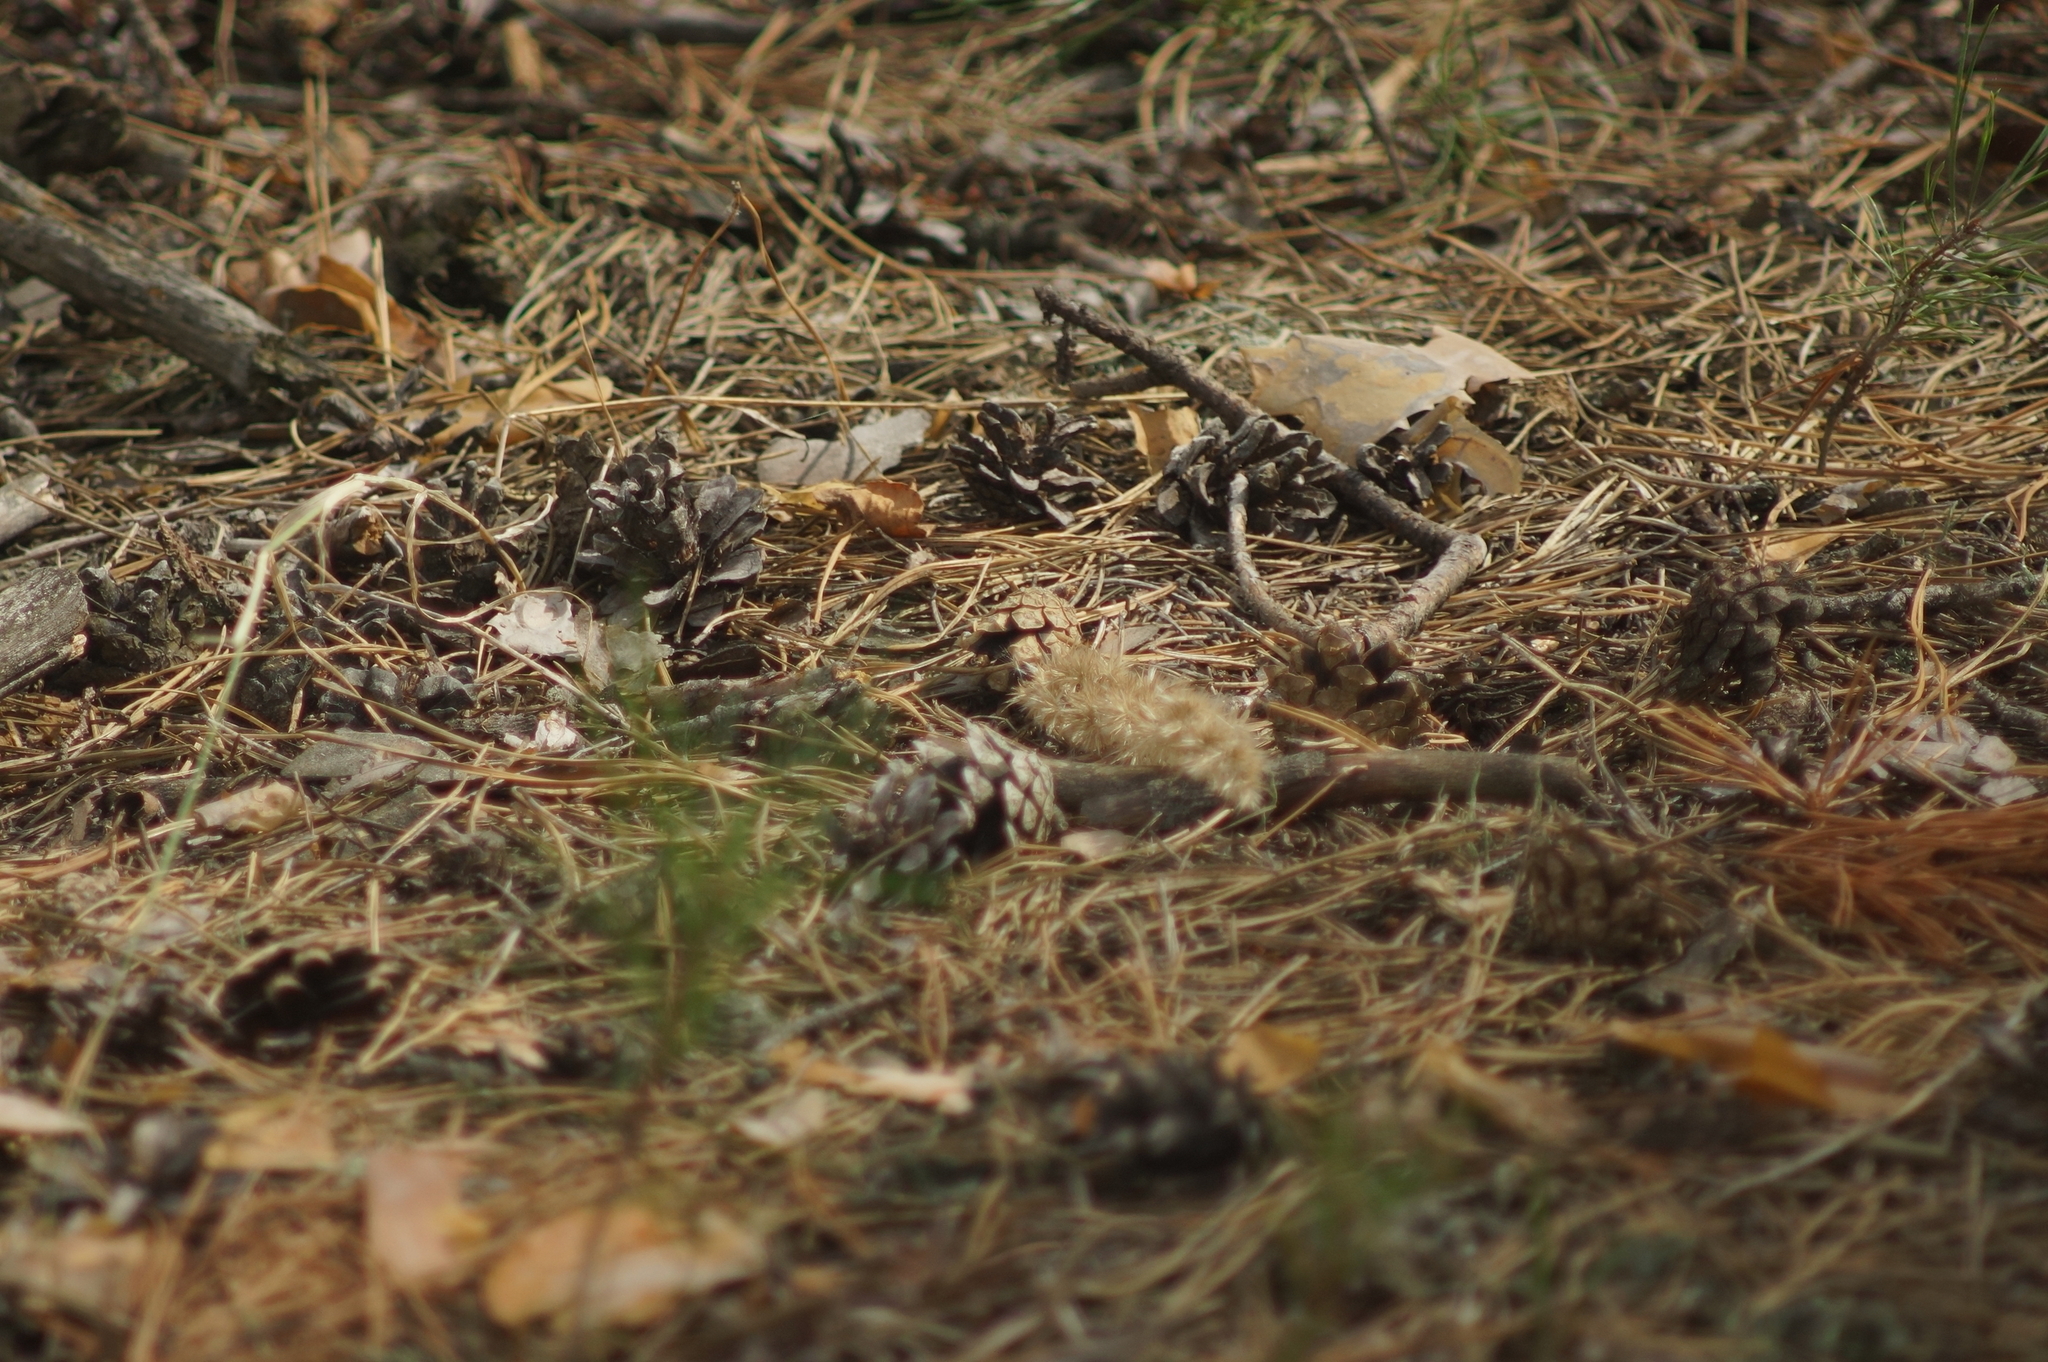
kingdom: Plantae
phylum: Tracheophyta
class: Pinopsida
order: Pinales
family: Pinaceae
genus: Pinus
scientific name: Pinus sylvestris
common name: Scots pine
